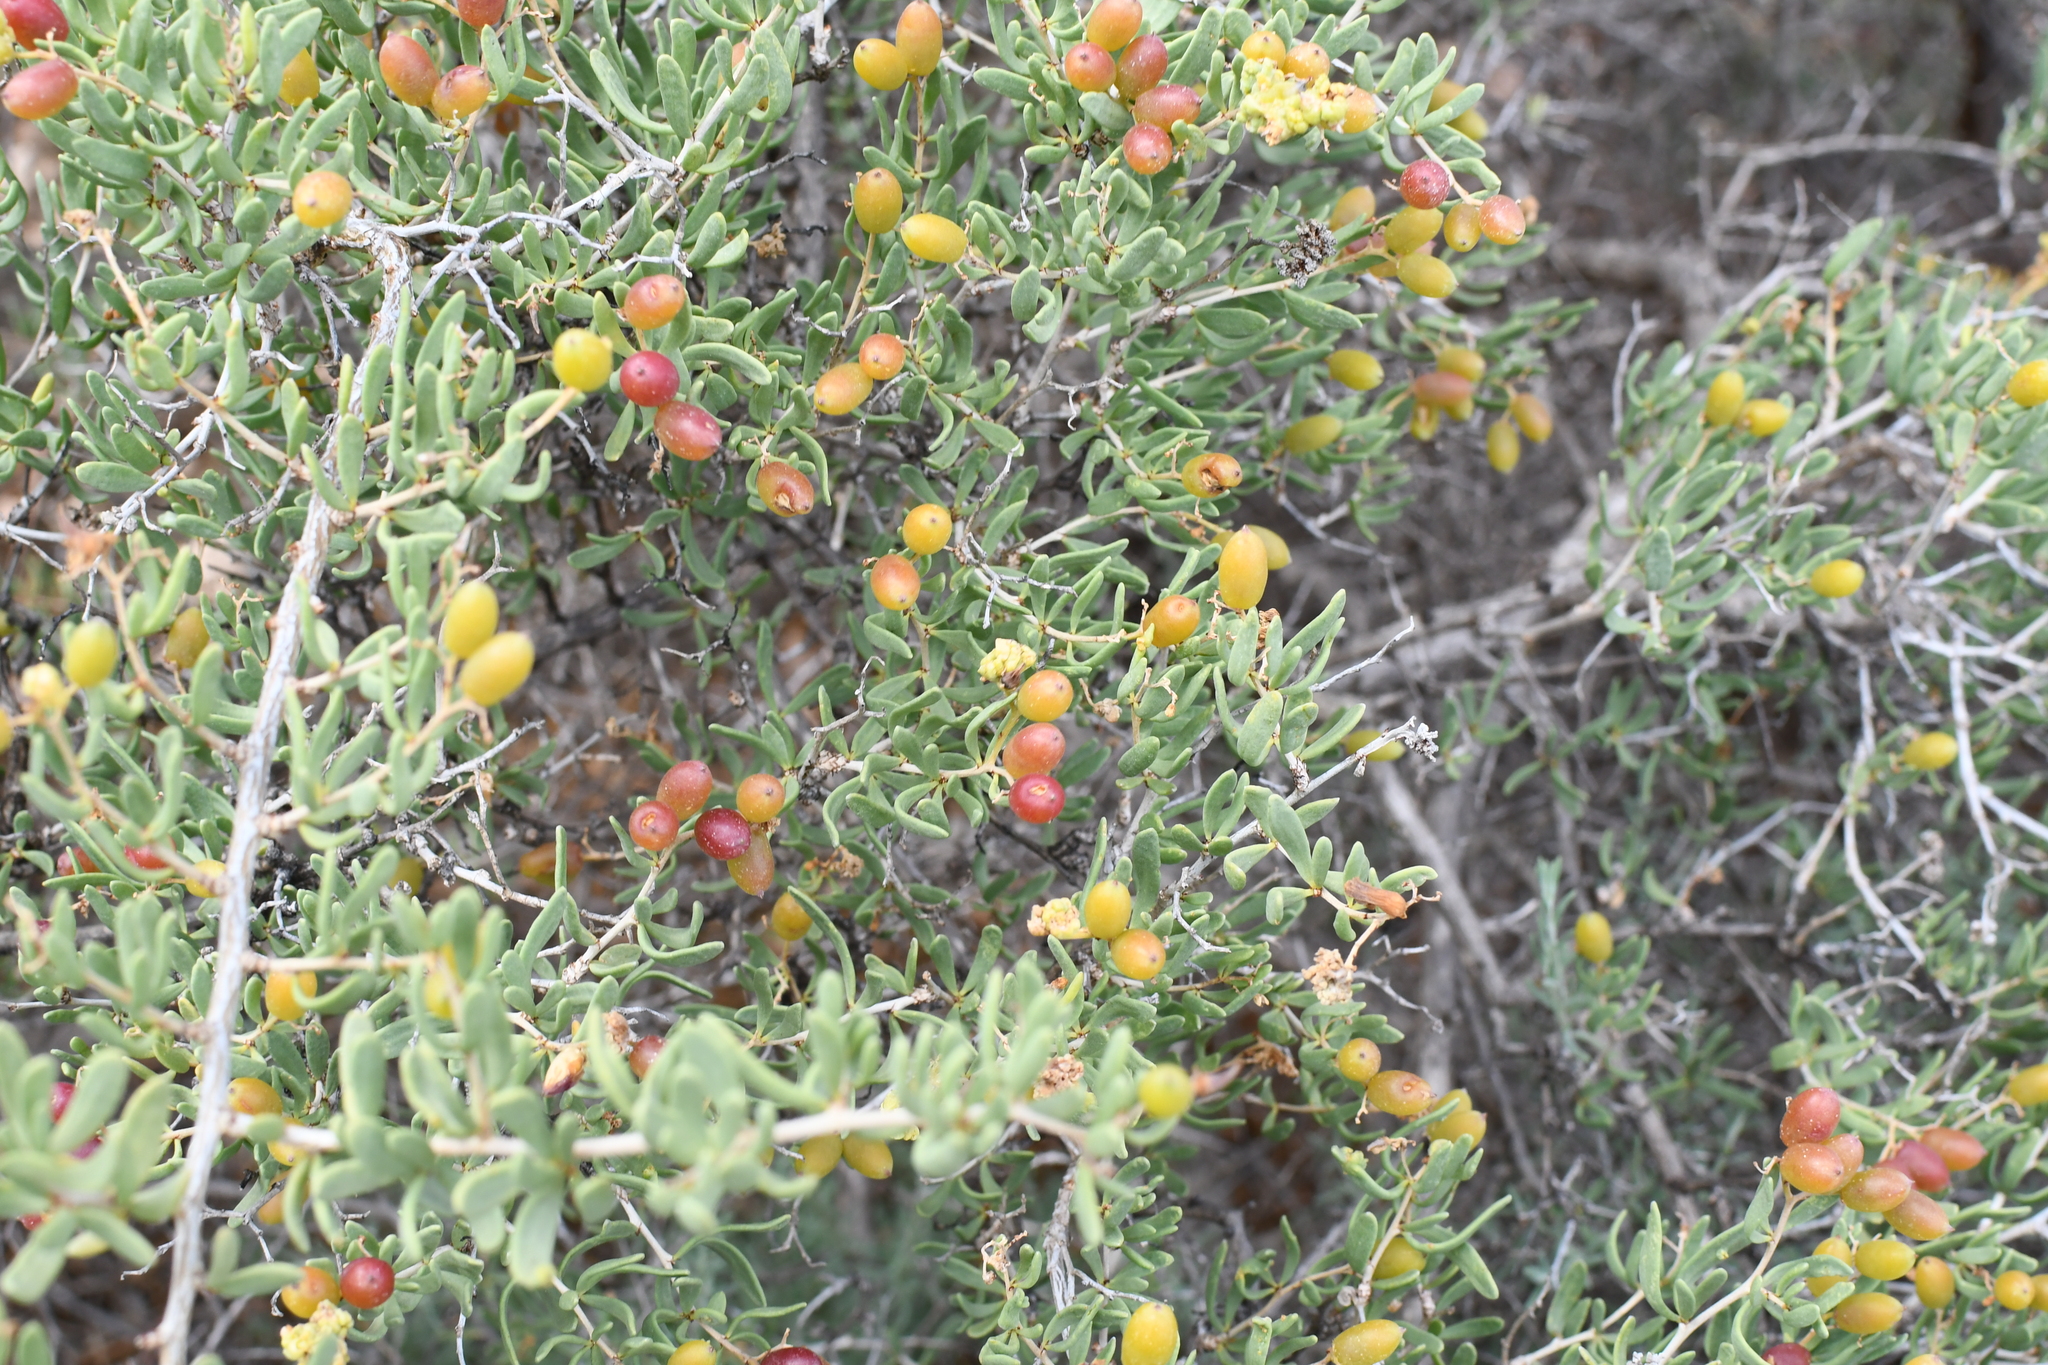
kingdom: Plantae
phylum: Tracheophyta
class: Magnoliopsida
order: Sapindales
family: Nitrariaceae
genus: Nitraria
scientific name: Nitraria billardierei
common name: Dillonbush
